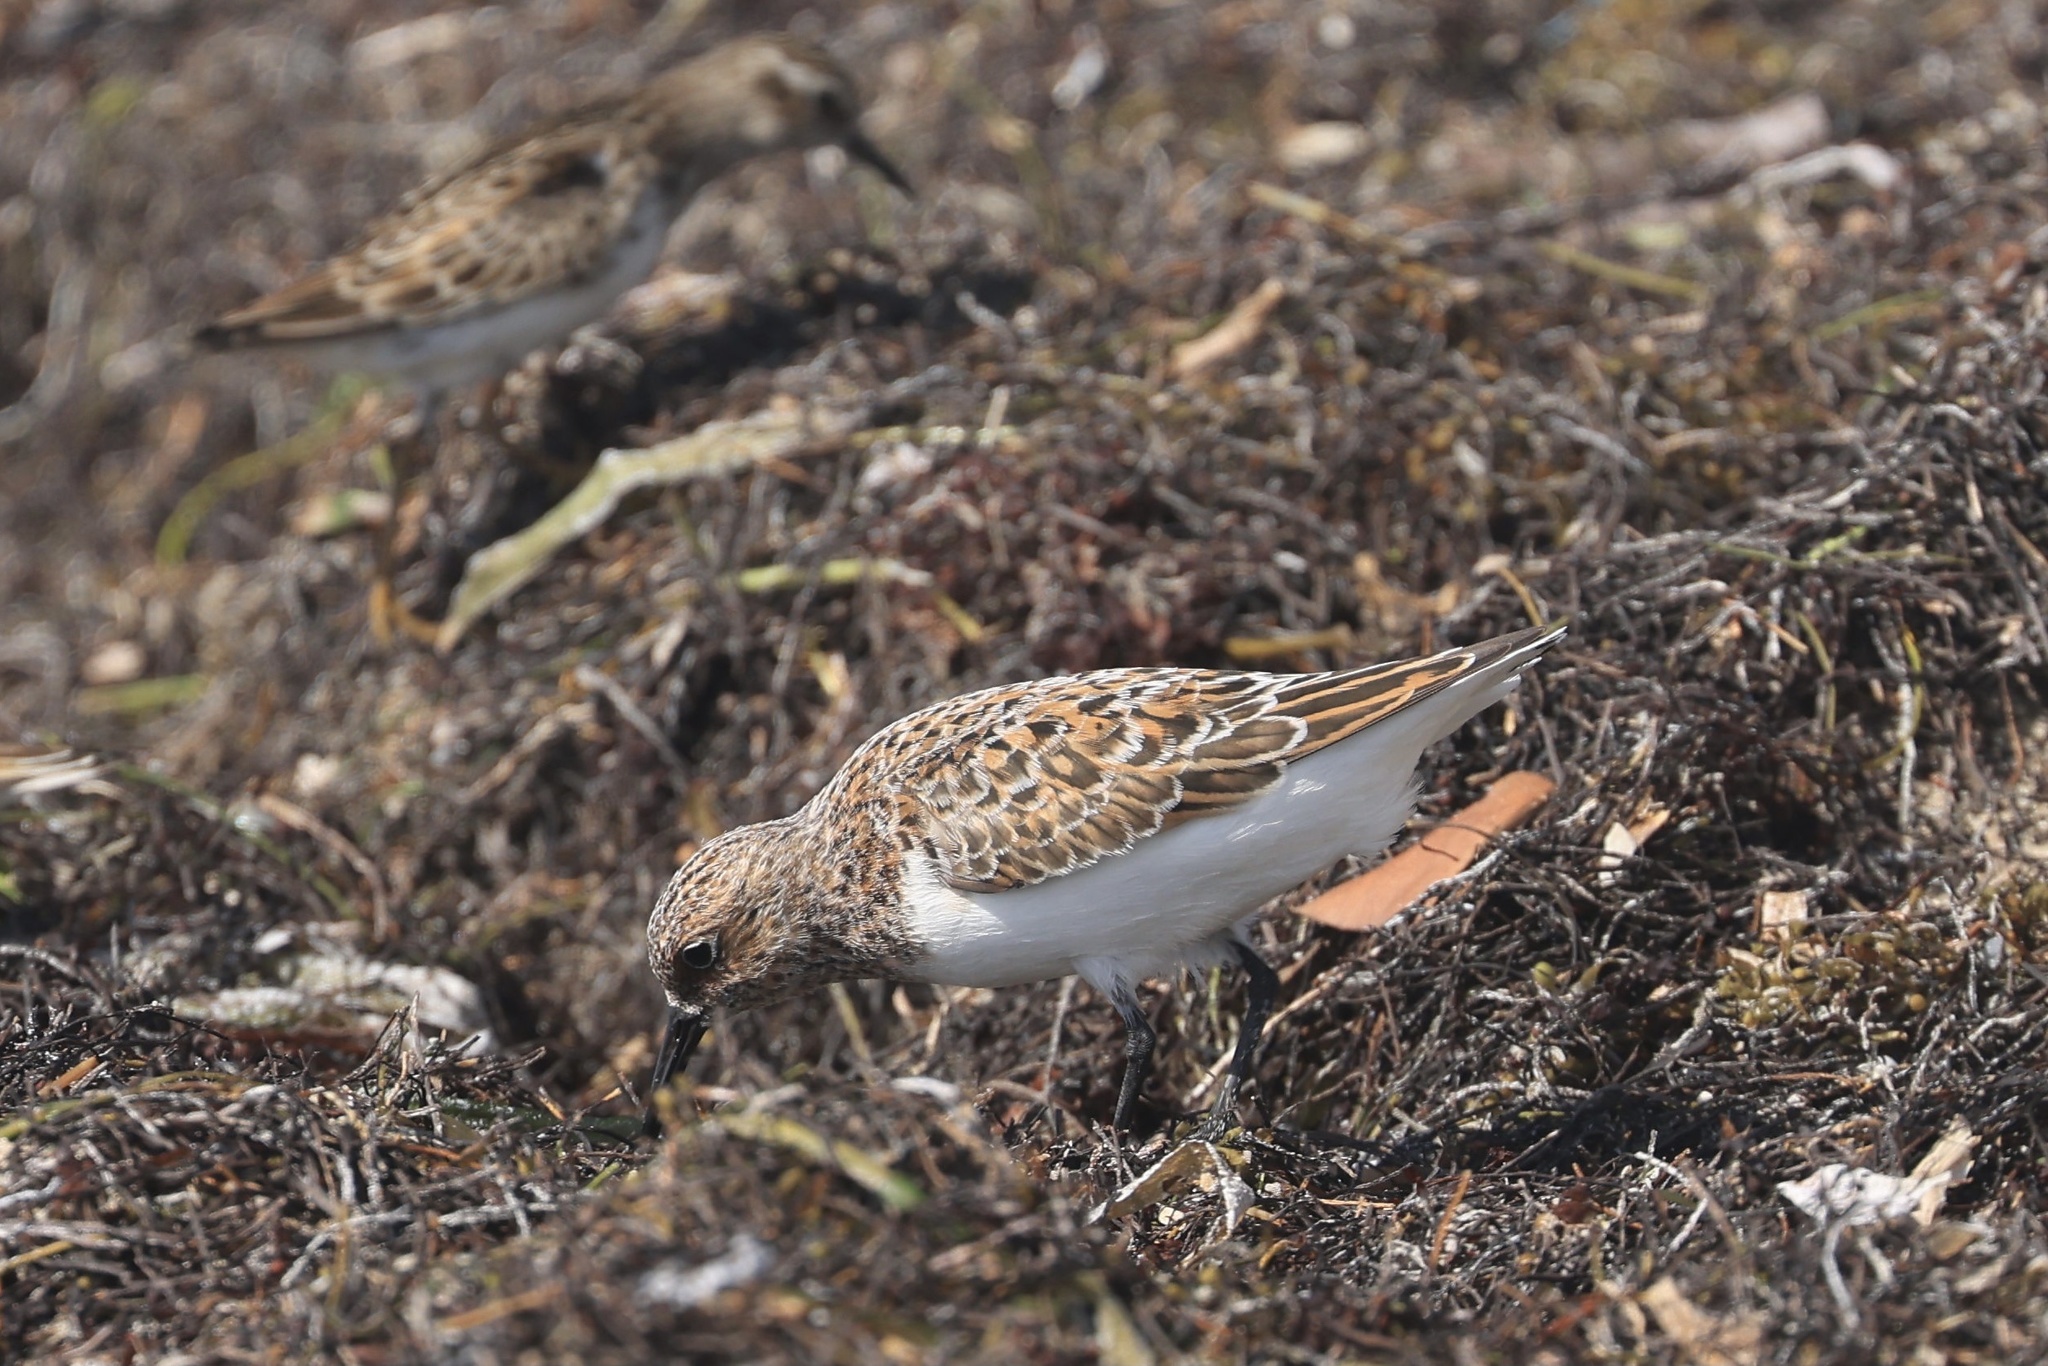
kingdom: Animalia
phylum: Chordata
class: Aves
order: Charadriiformes
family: Scolopacidae
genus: Calidris
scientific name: Calidris alba
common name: Sanderling
